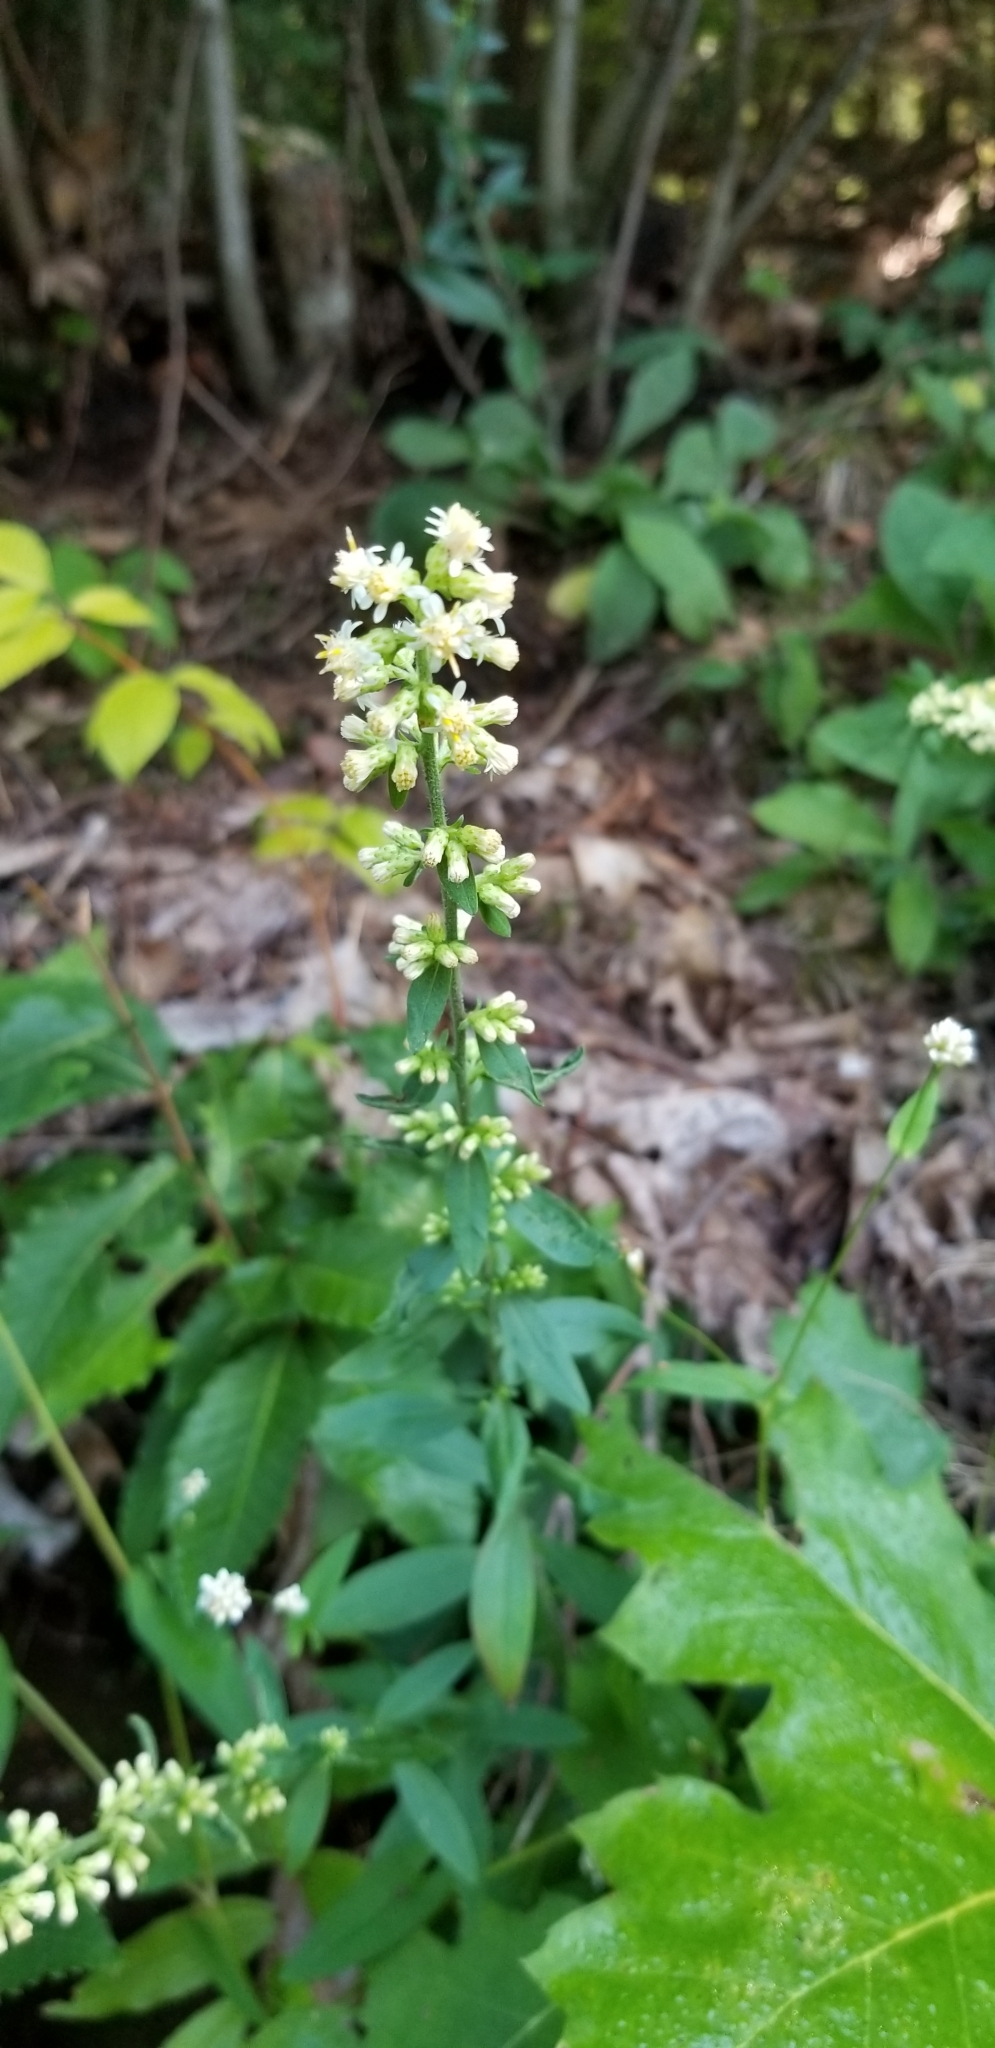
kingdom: Plantae
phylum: Tracheophyta
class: Magnoliopsida
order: Asterales
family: Asteraceae
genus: Solidago
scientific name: Solidago bicolor
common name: Silverrod
